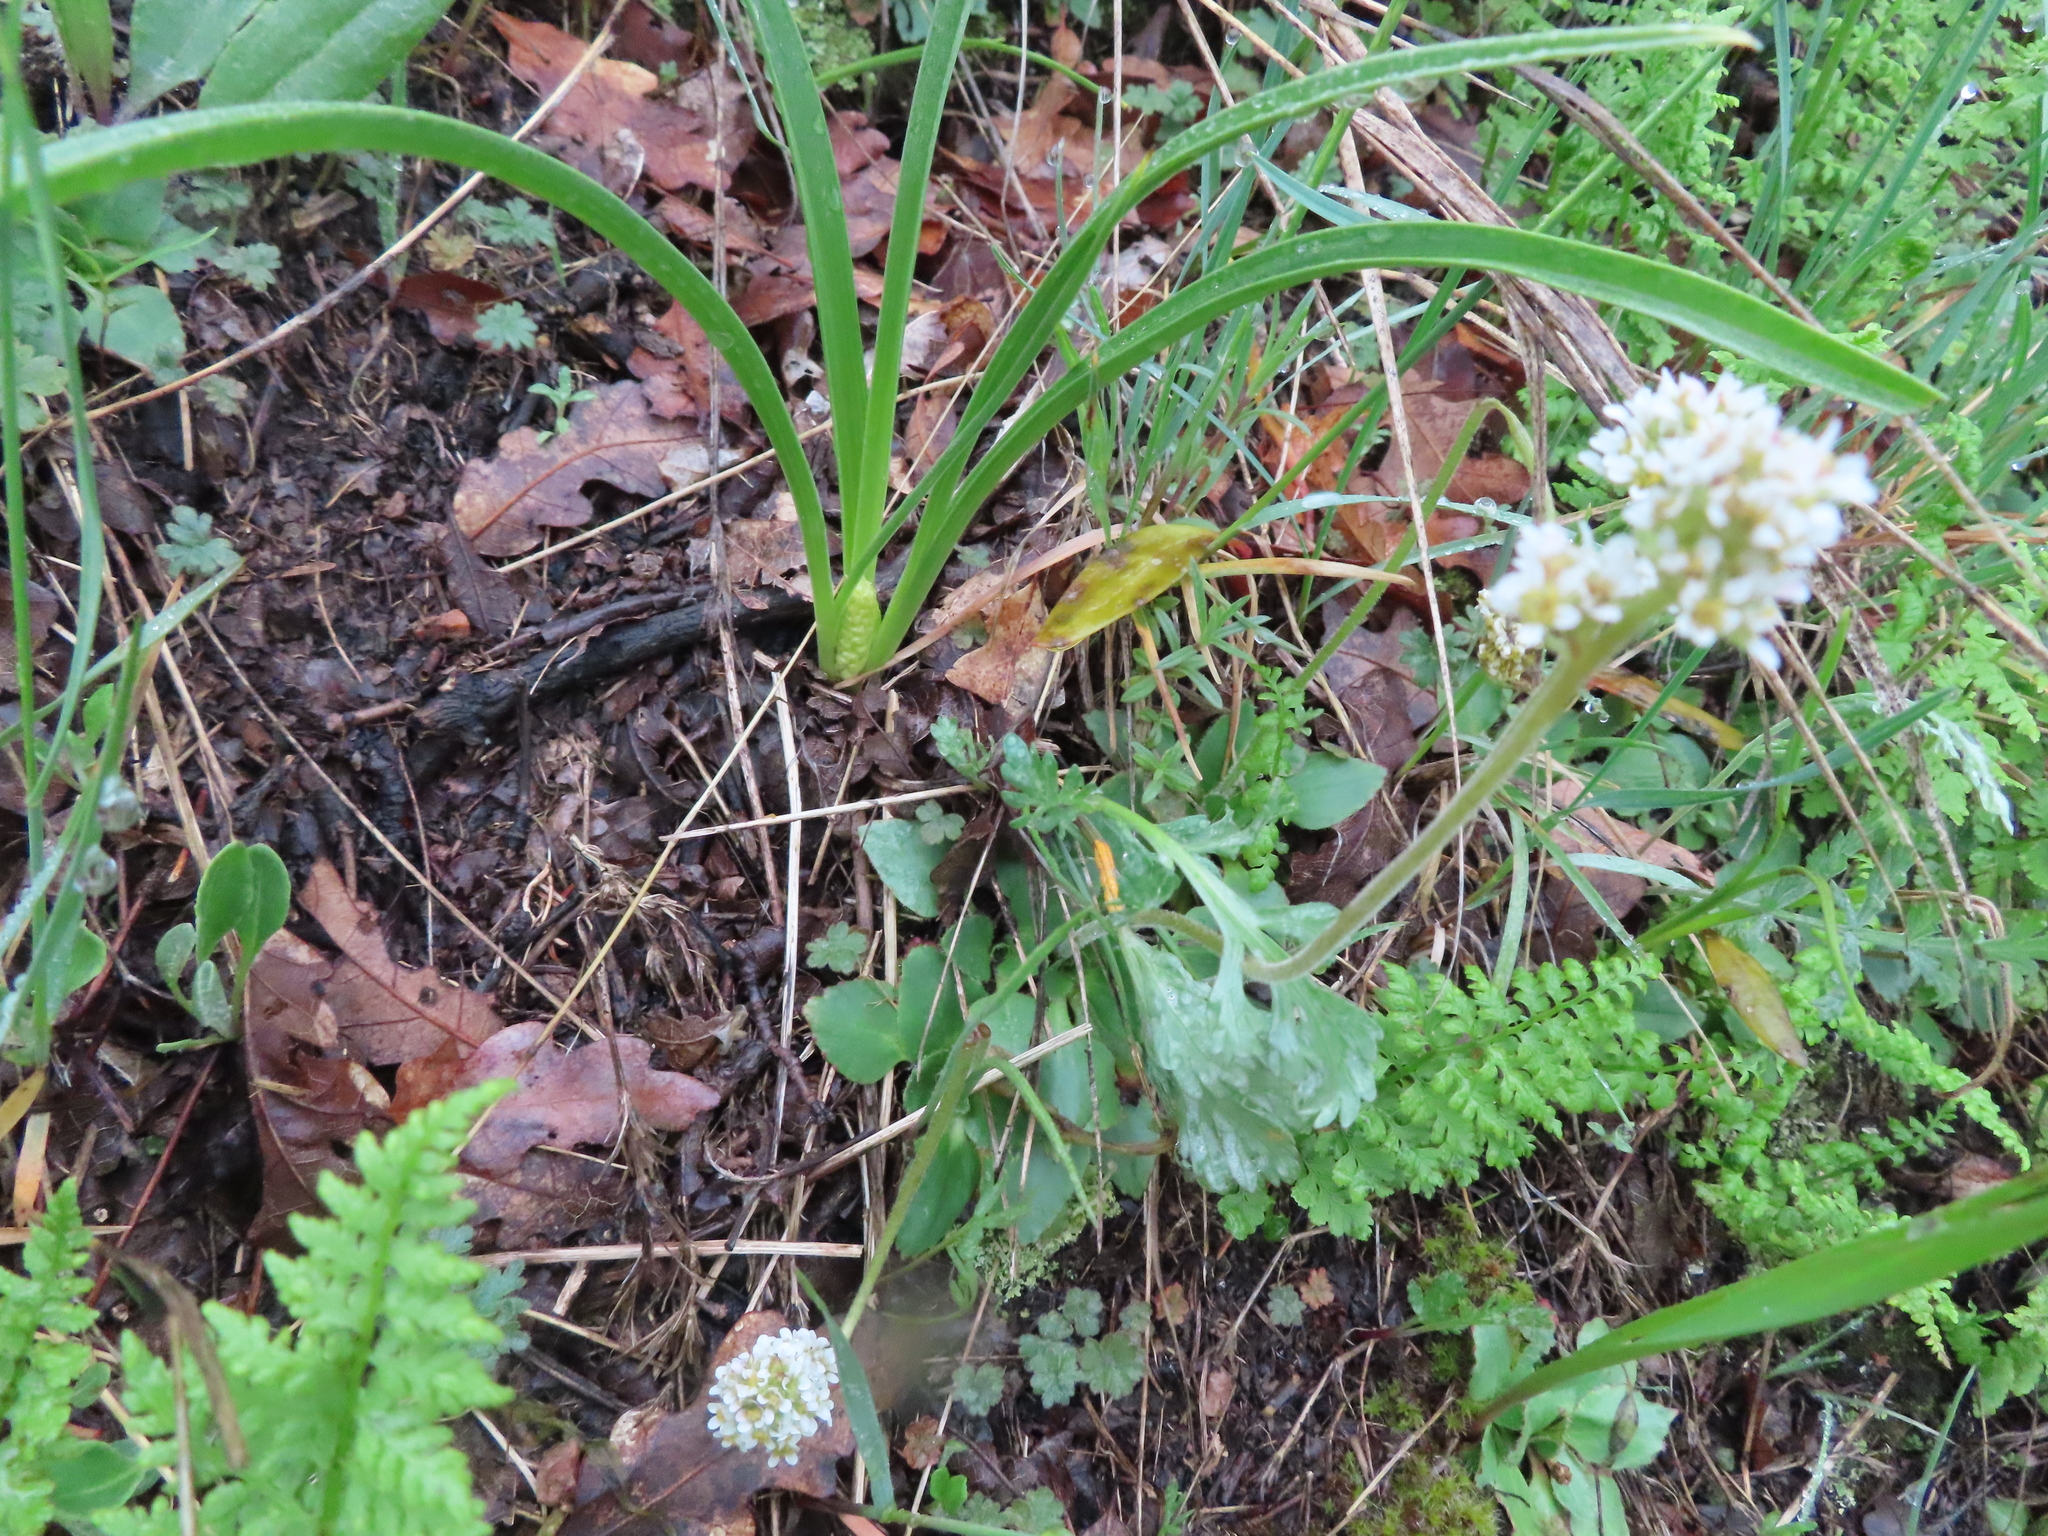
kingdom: Plantae
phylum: Tracheophyta
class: Magnoliopsida
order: Saxifragales
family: Saxifragaceae
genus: Micranthes
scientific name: Micranthes rhomboidea
